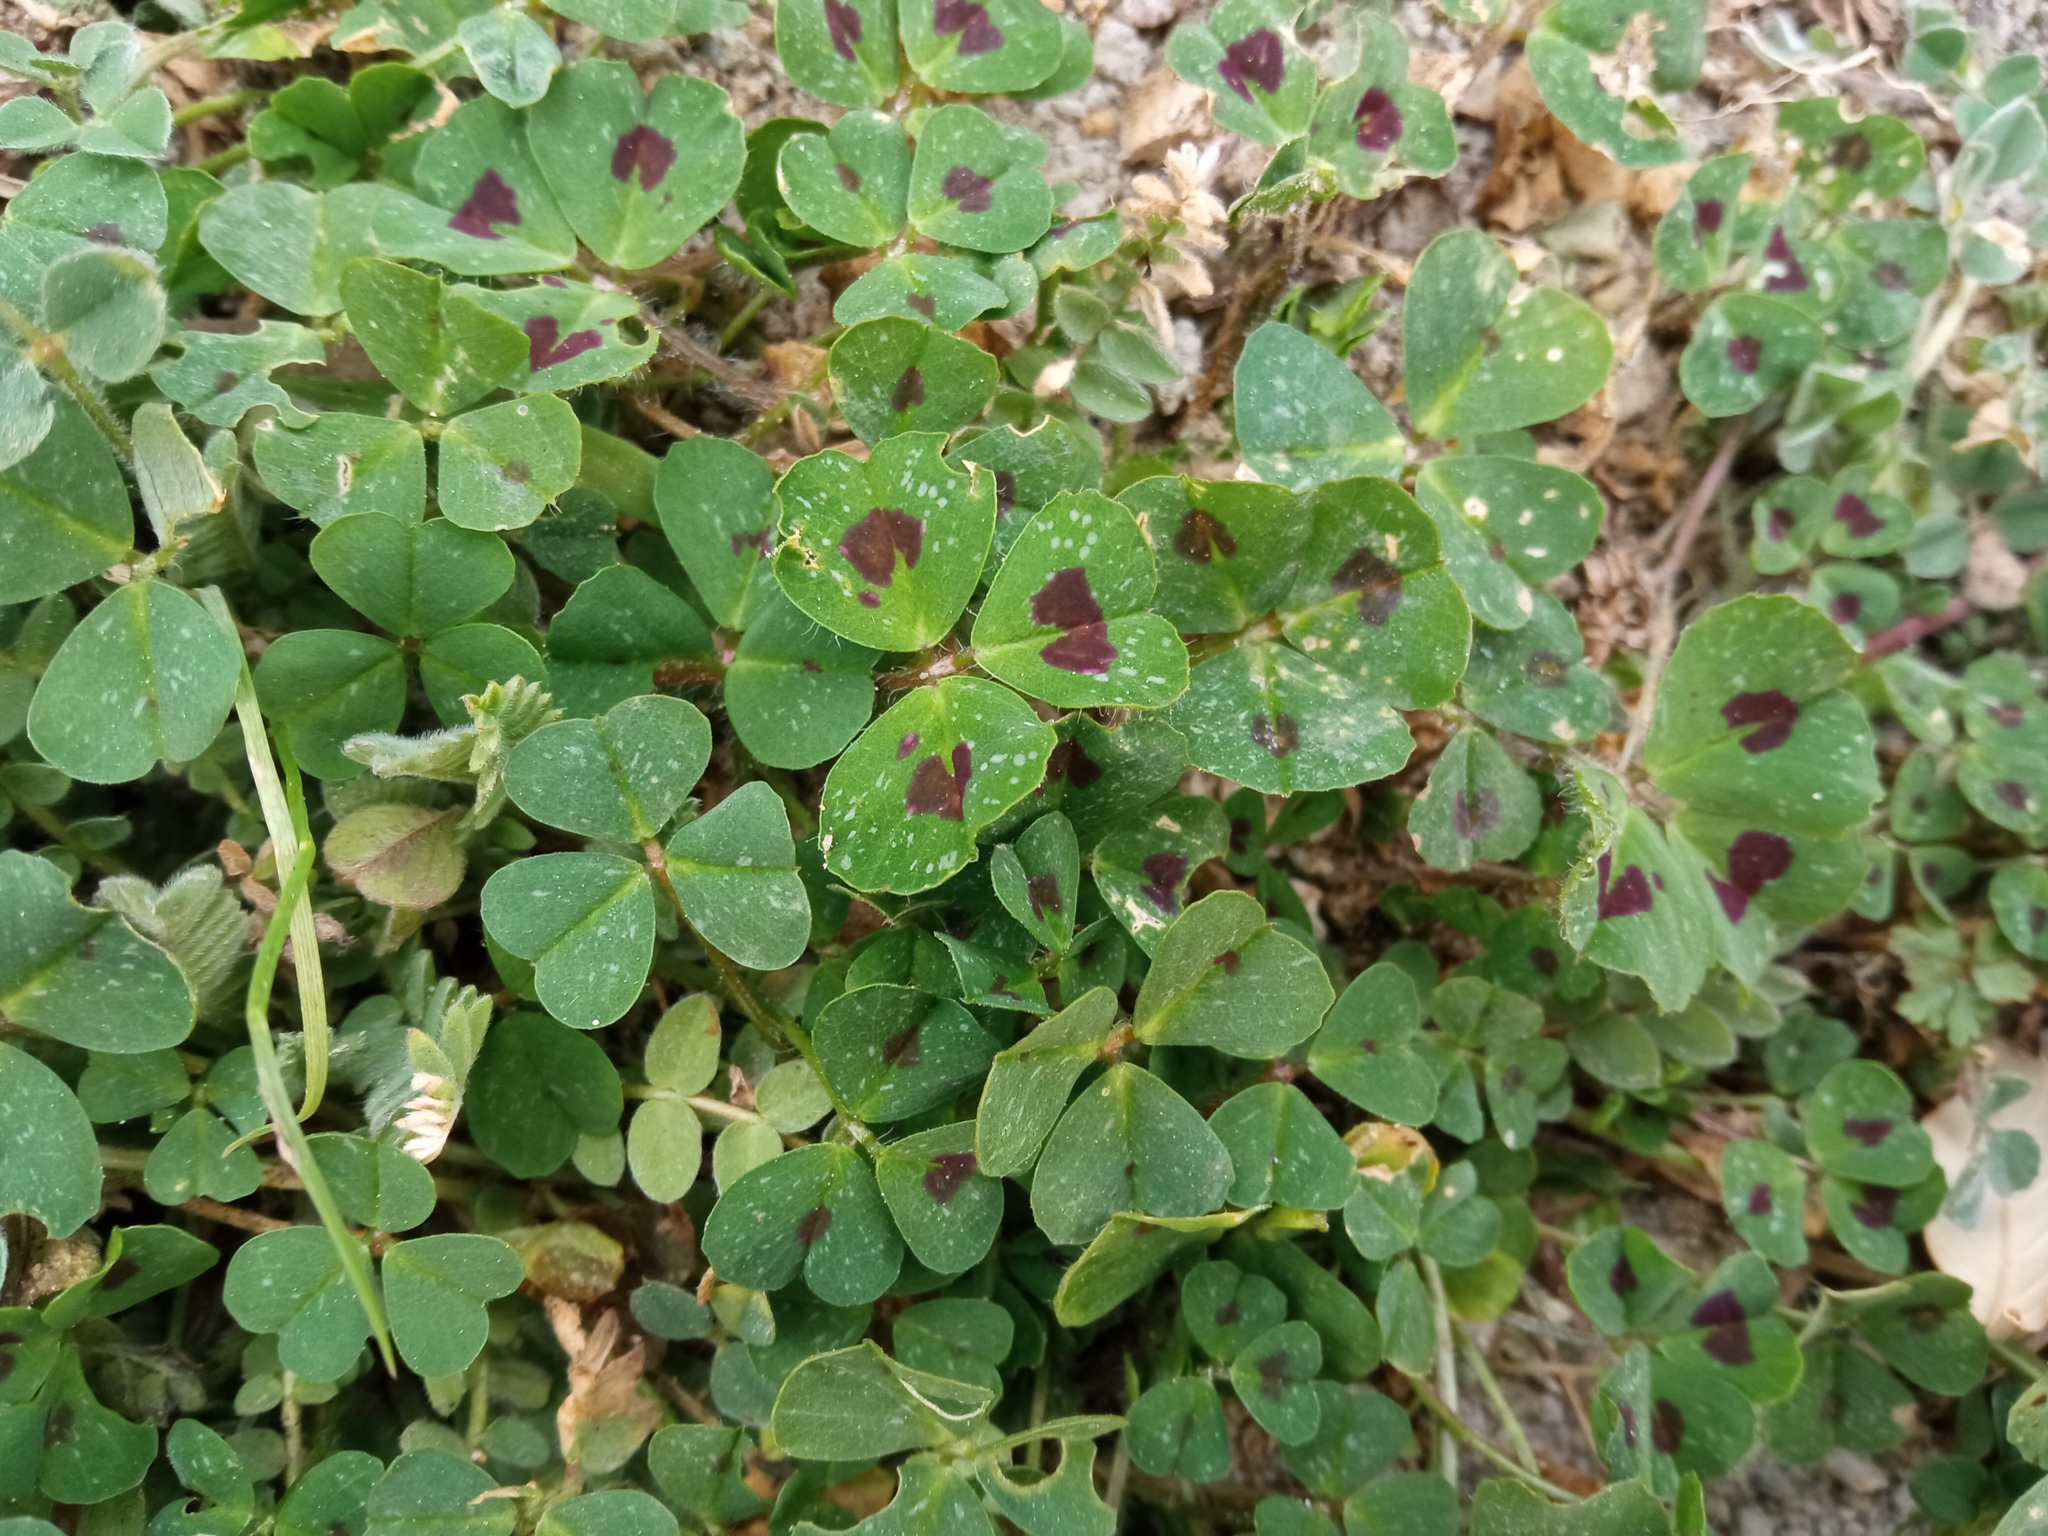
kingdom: Plantae
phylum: Tracheophyta
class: Magnoliopsida
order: Fabales
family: Fabaceae
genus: Medicago
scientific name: Medicago arabica
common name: Spotted medick
